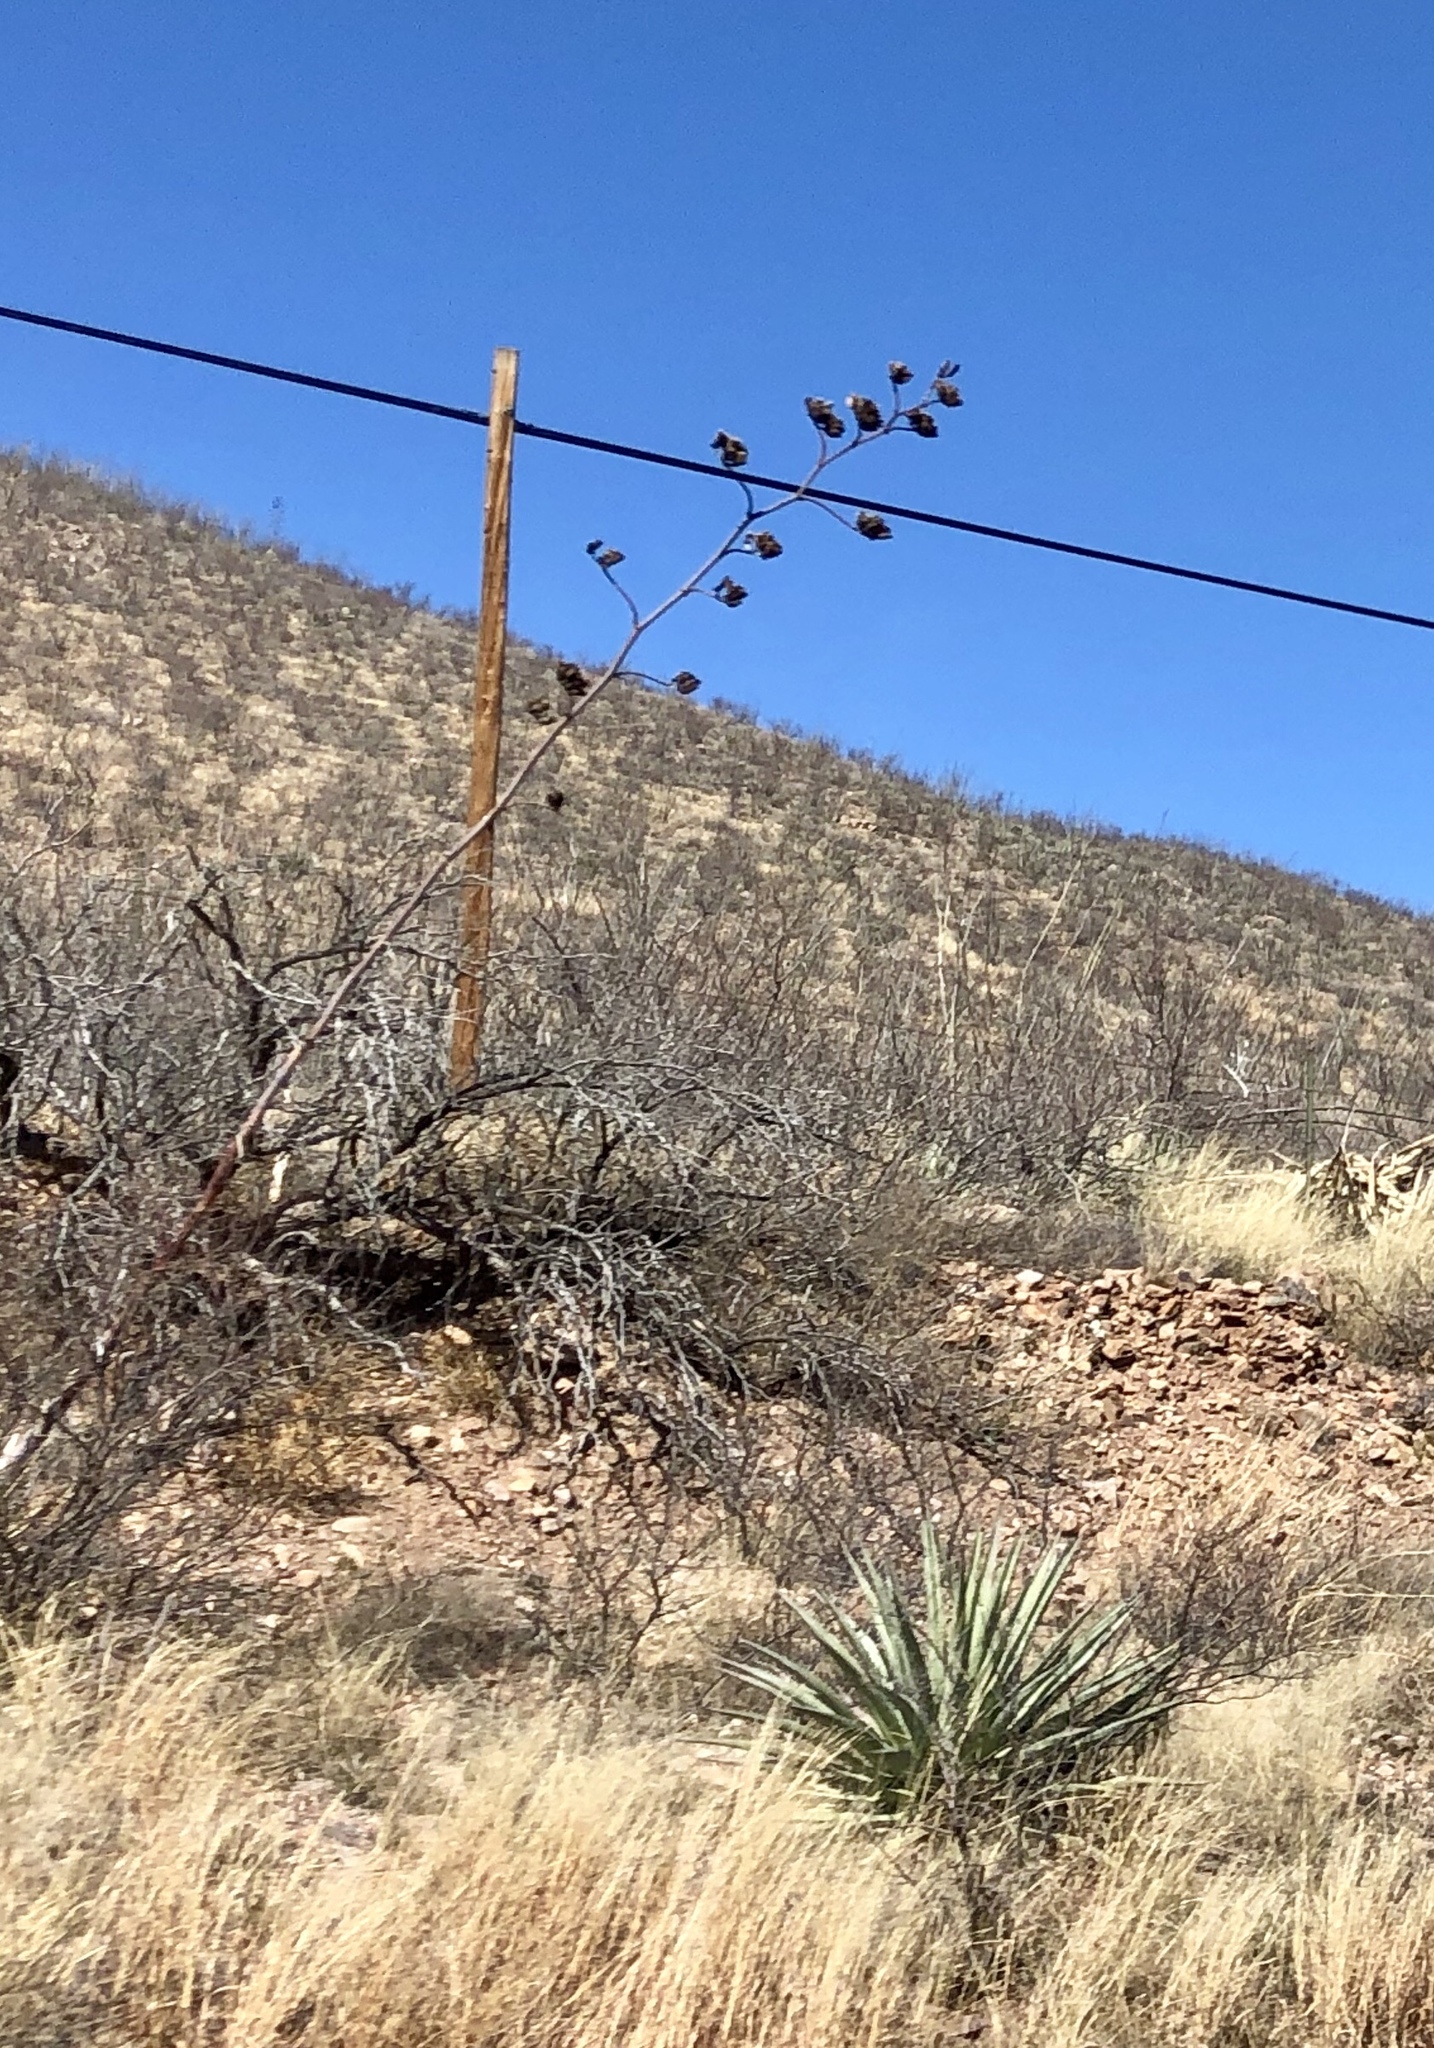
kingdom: Plantae
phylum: Tracheophyta
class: Liliopsida
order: Asparagales
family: Asparagaceae
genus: Agave
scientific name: Agave palmeri
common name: Palmer agave
